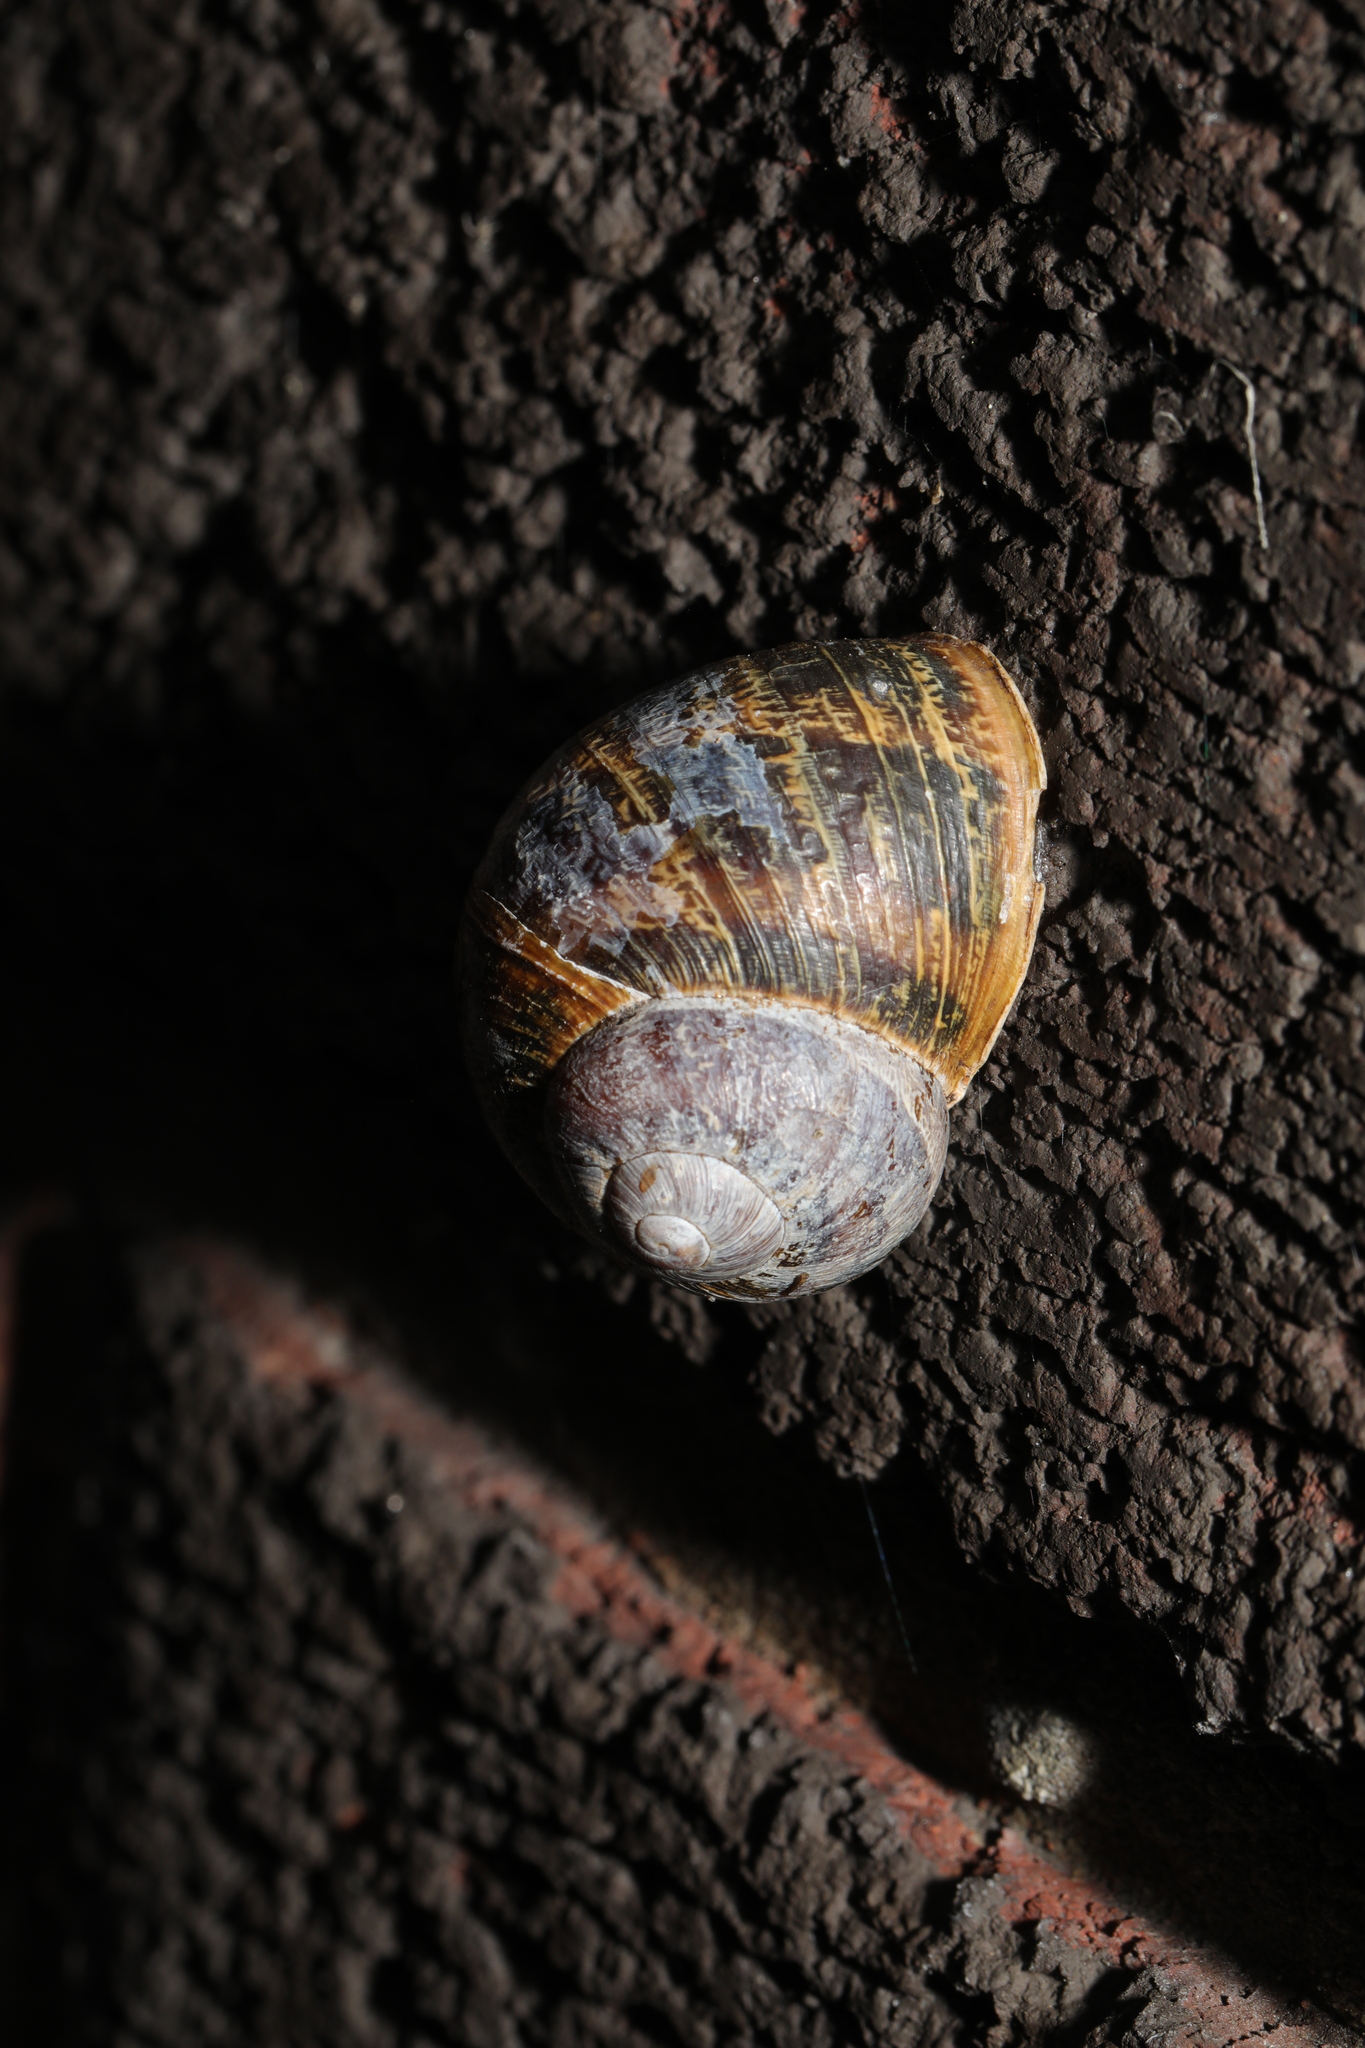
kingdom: Animalia
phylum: Mollusca
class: Gastropoda
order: Stylommatophora
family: Helicidae
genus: Cornu
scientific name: Cornu aspersum
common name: Brown garden snail
